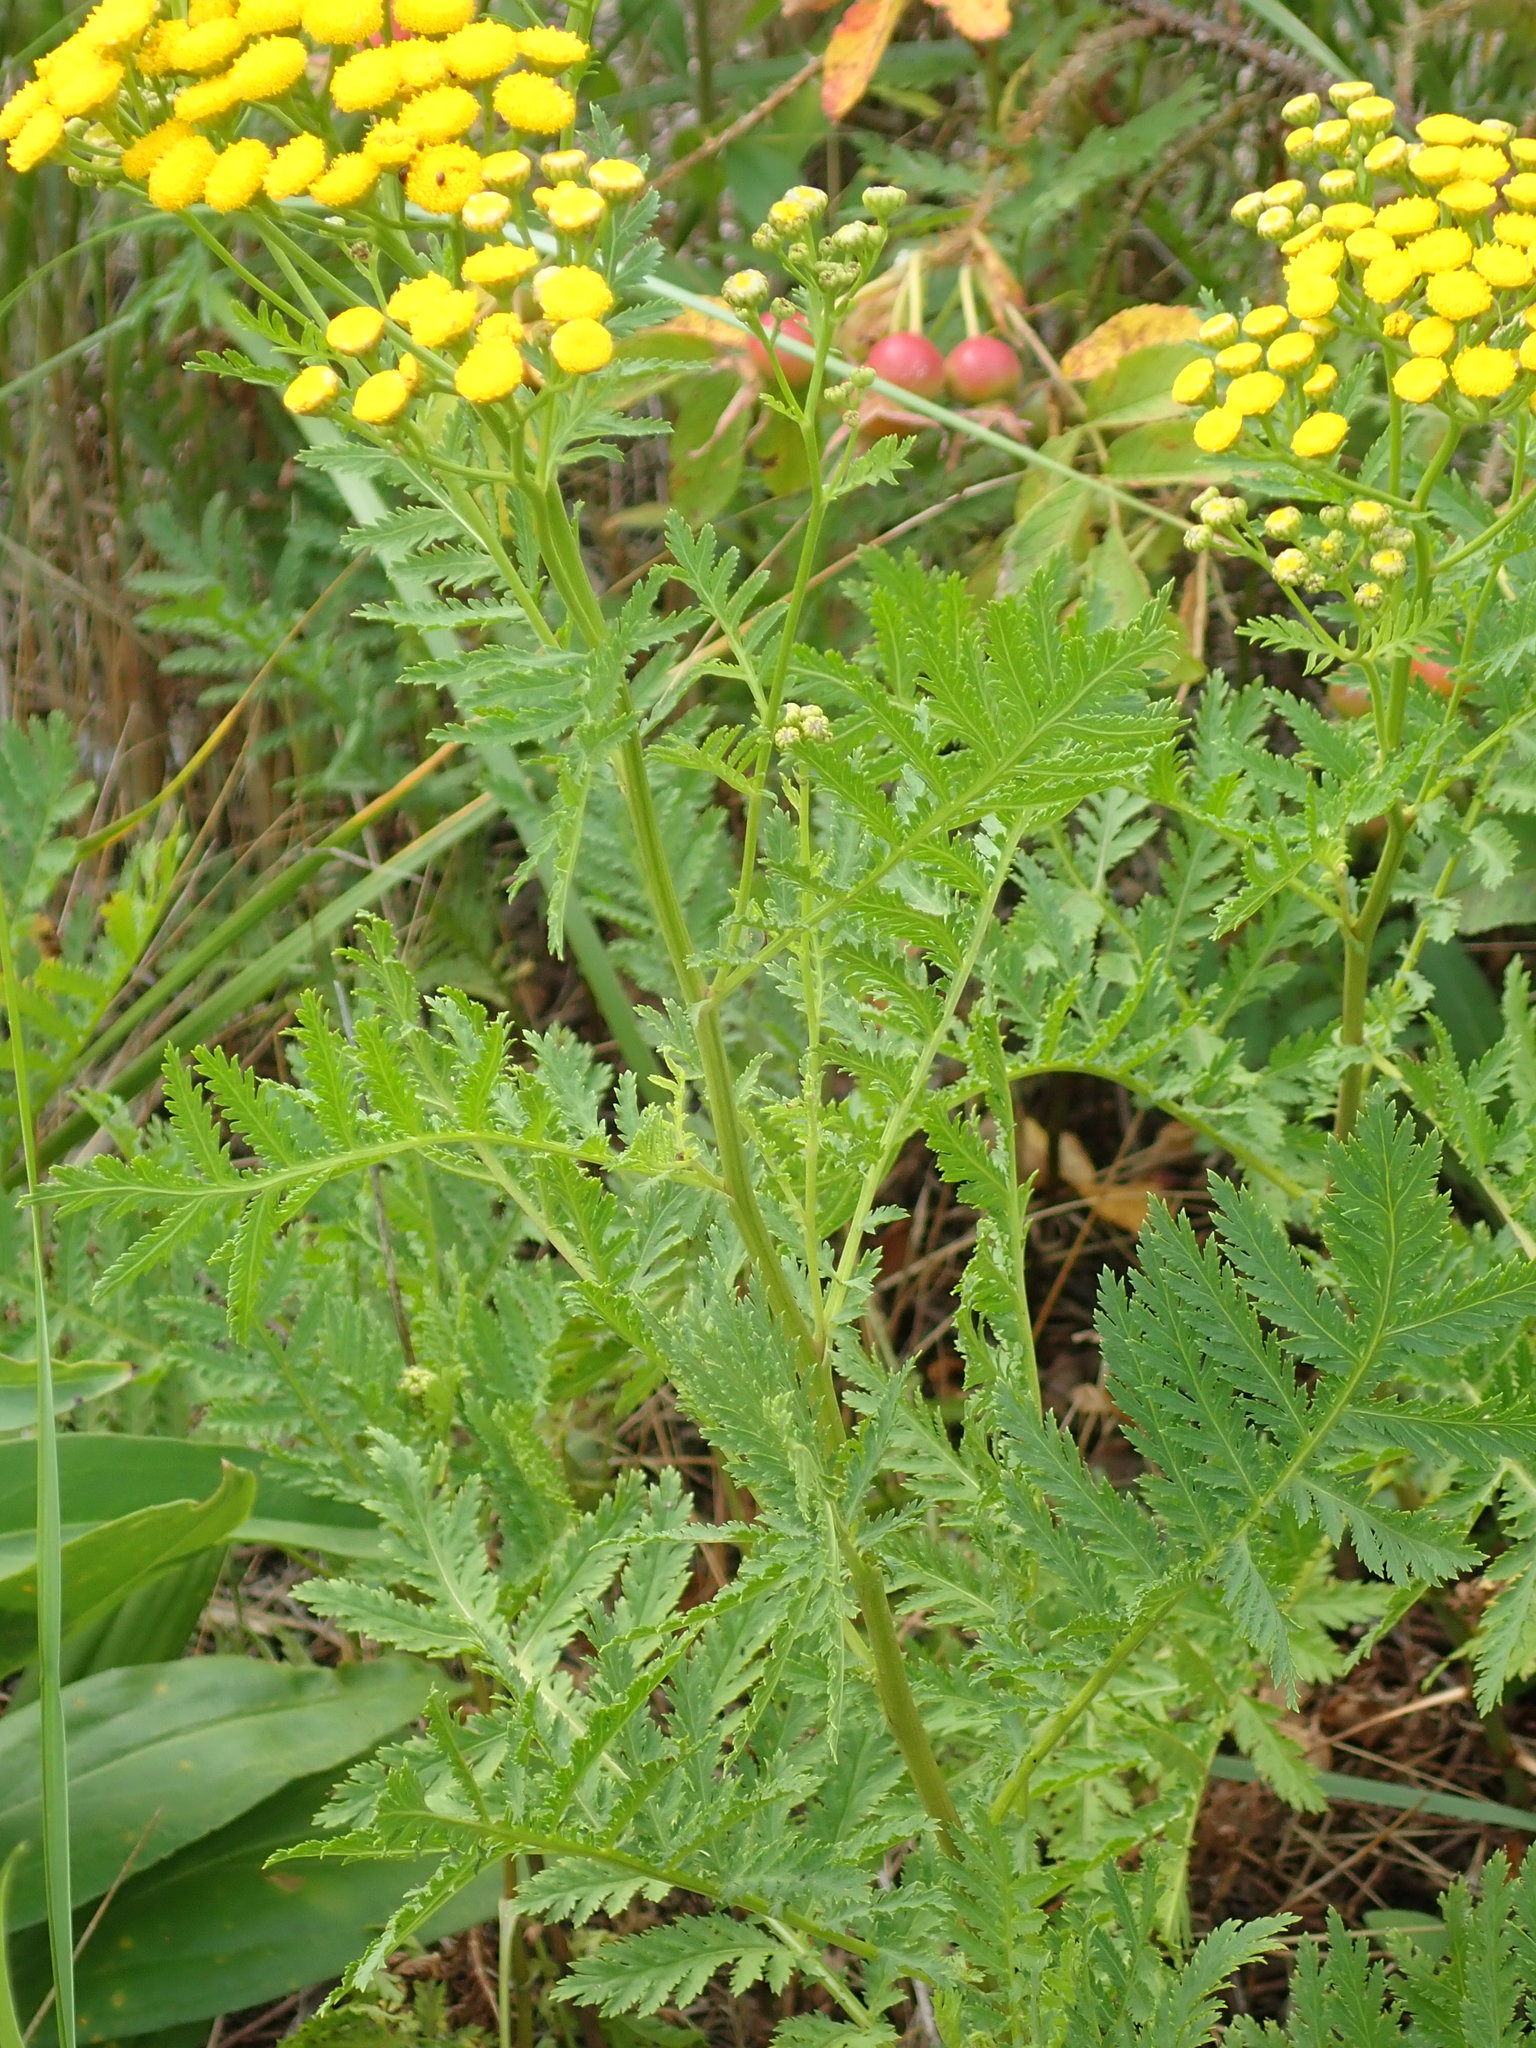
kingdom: Plantae
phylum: Tracheophyta
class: Magnoliopsida
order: Asterales
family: Asteraceae
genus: Tanacetum
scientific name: Tanacetum vulgare
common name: Common tansy
